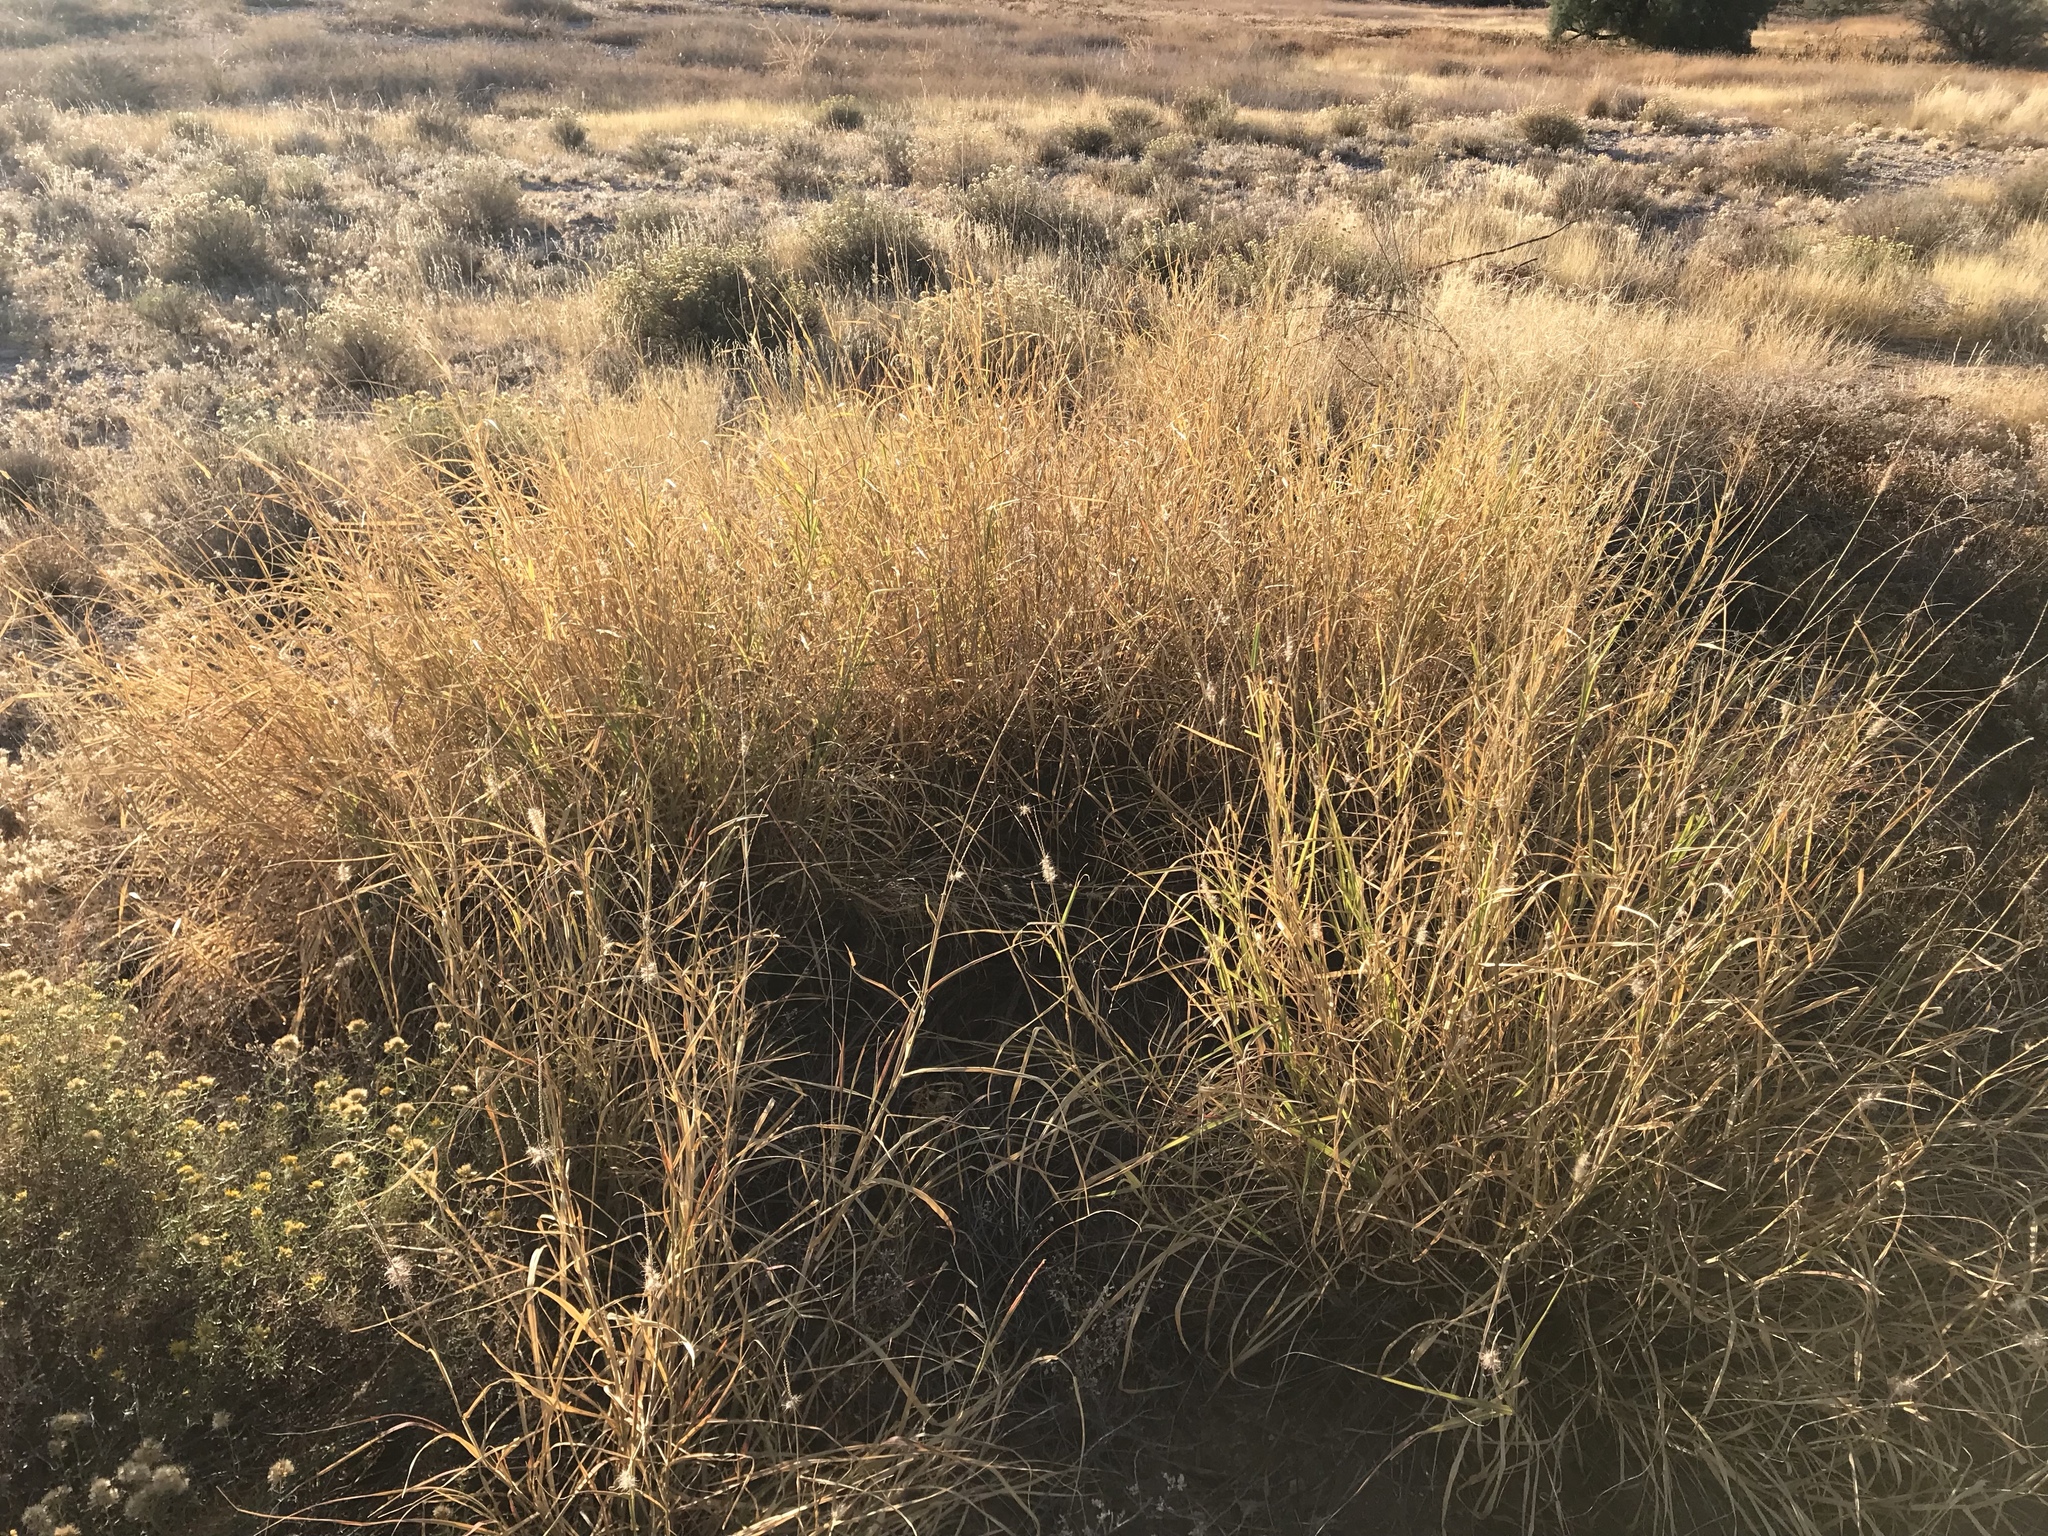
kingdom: Plantae
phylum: Tracheophyta
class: Liliopsida
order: Poales
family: Poaceae
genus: Cenchrus
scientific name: Cenchrus ciliaris
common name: Buffelgrass
